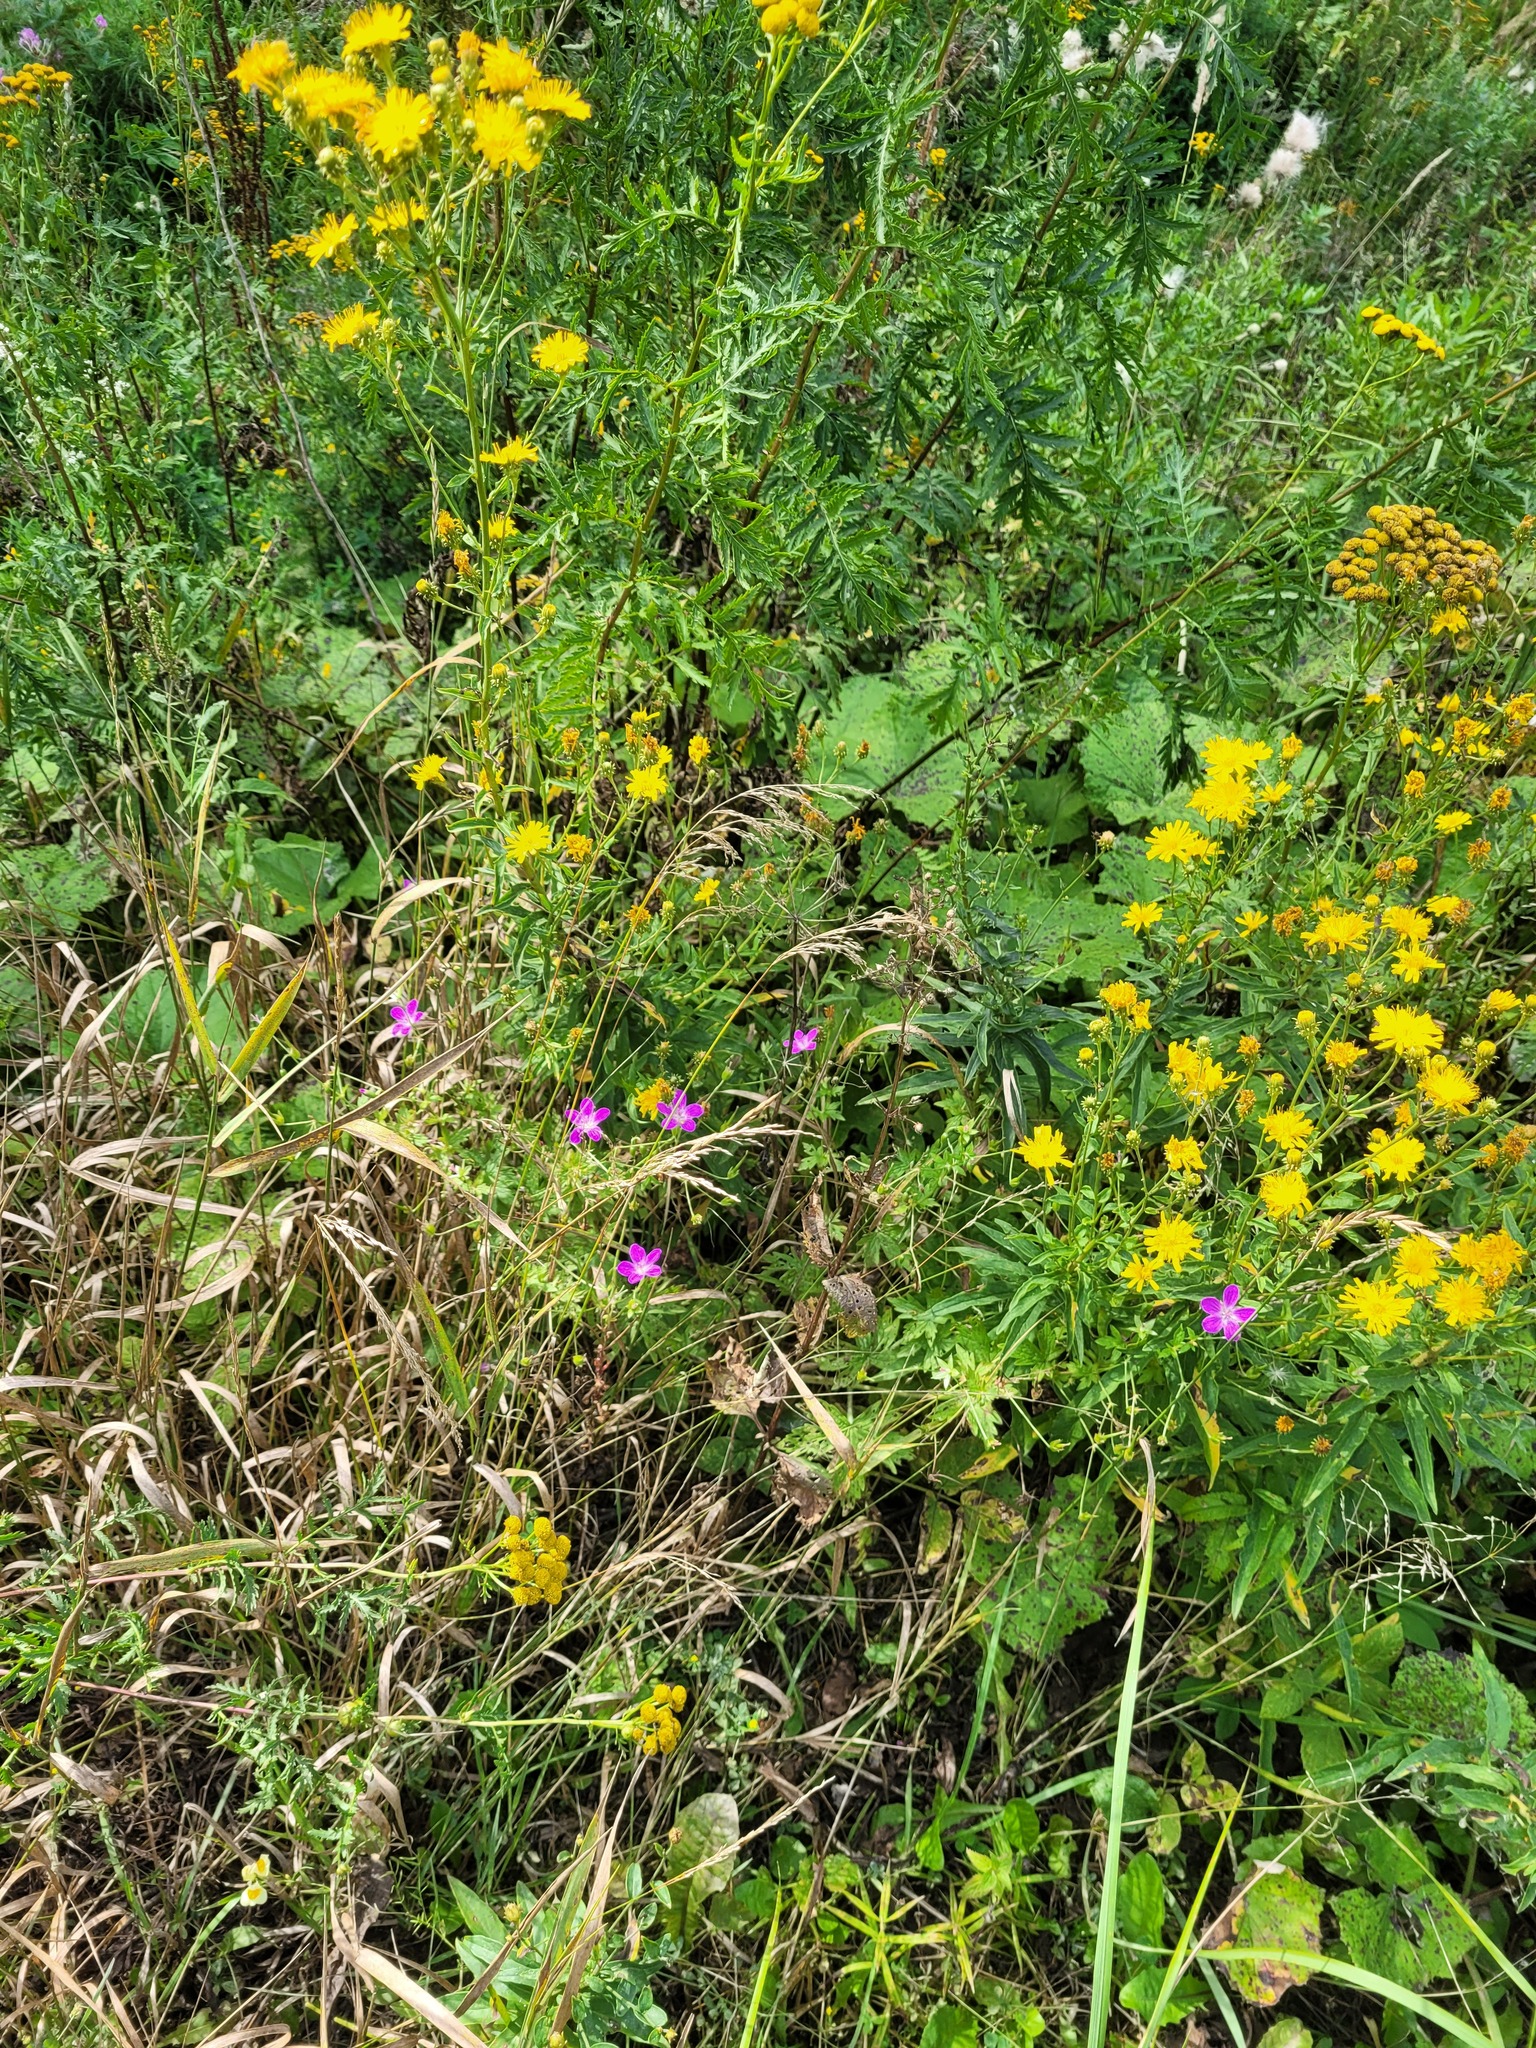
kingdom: Plantae
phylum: Tracheophyta
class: Magnoliopsida
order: Geraniales
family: Geraniaceae
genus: Geranium
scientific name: Geranium palustre
